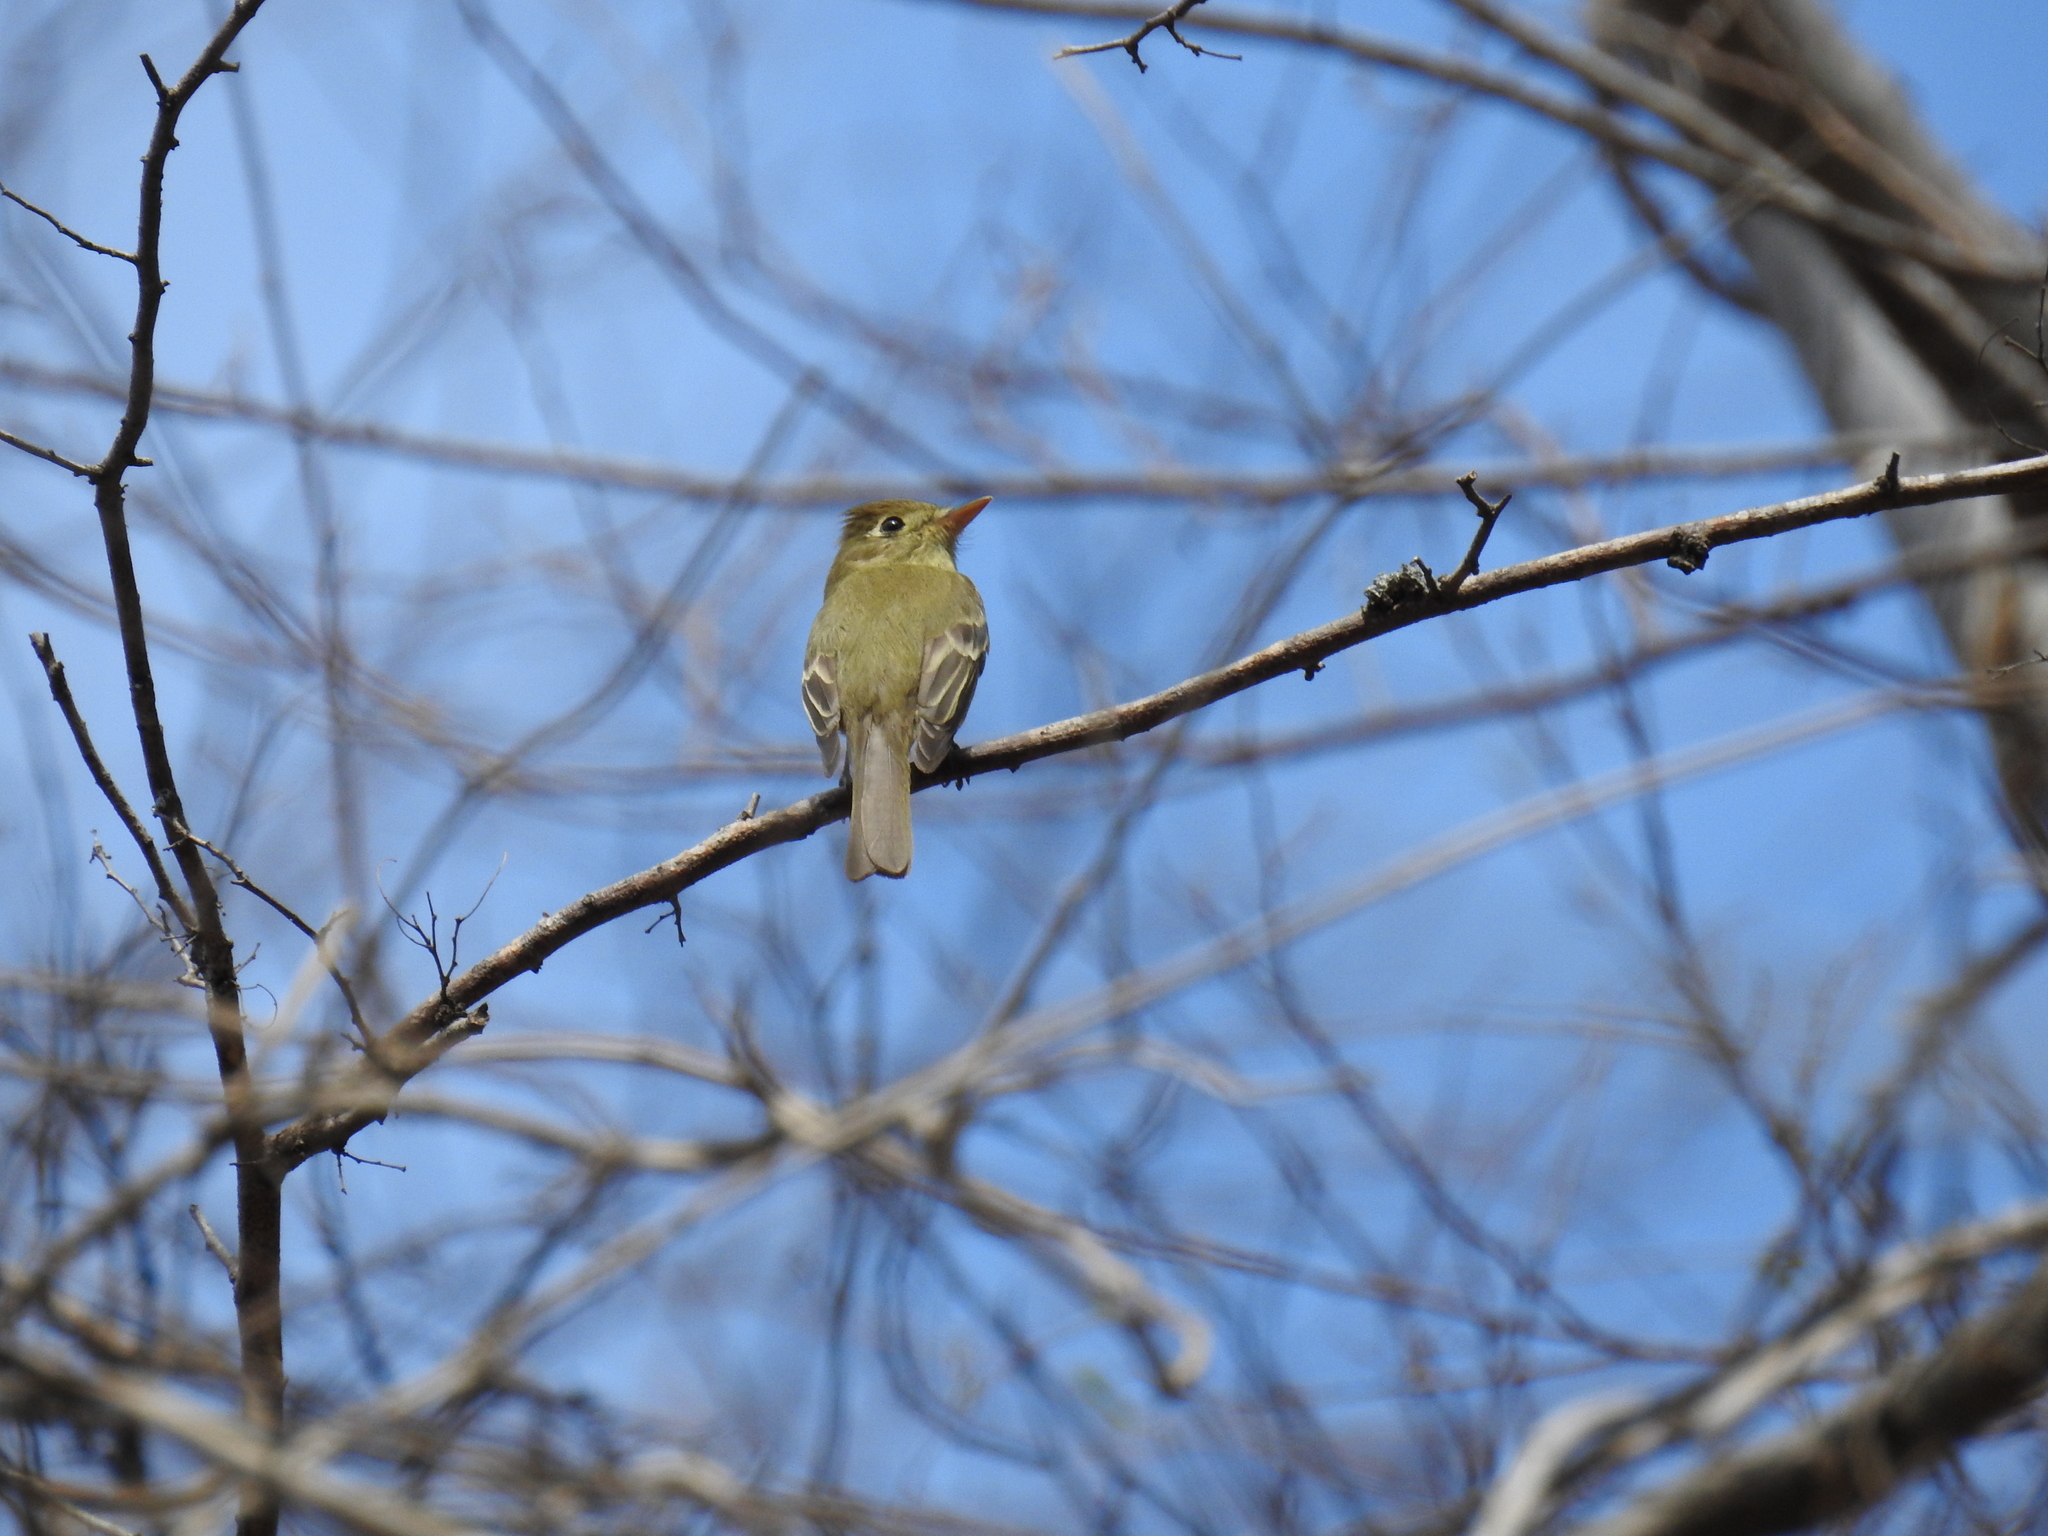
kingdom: Animalia
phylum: Chordata
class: Aves
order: Passeriformes
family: Tyrannidae
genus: Empidonax
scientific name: Empidonax difficilis
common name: Pacific-slope flycatcher
